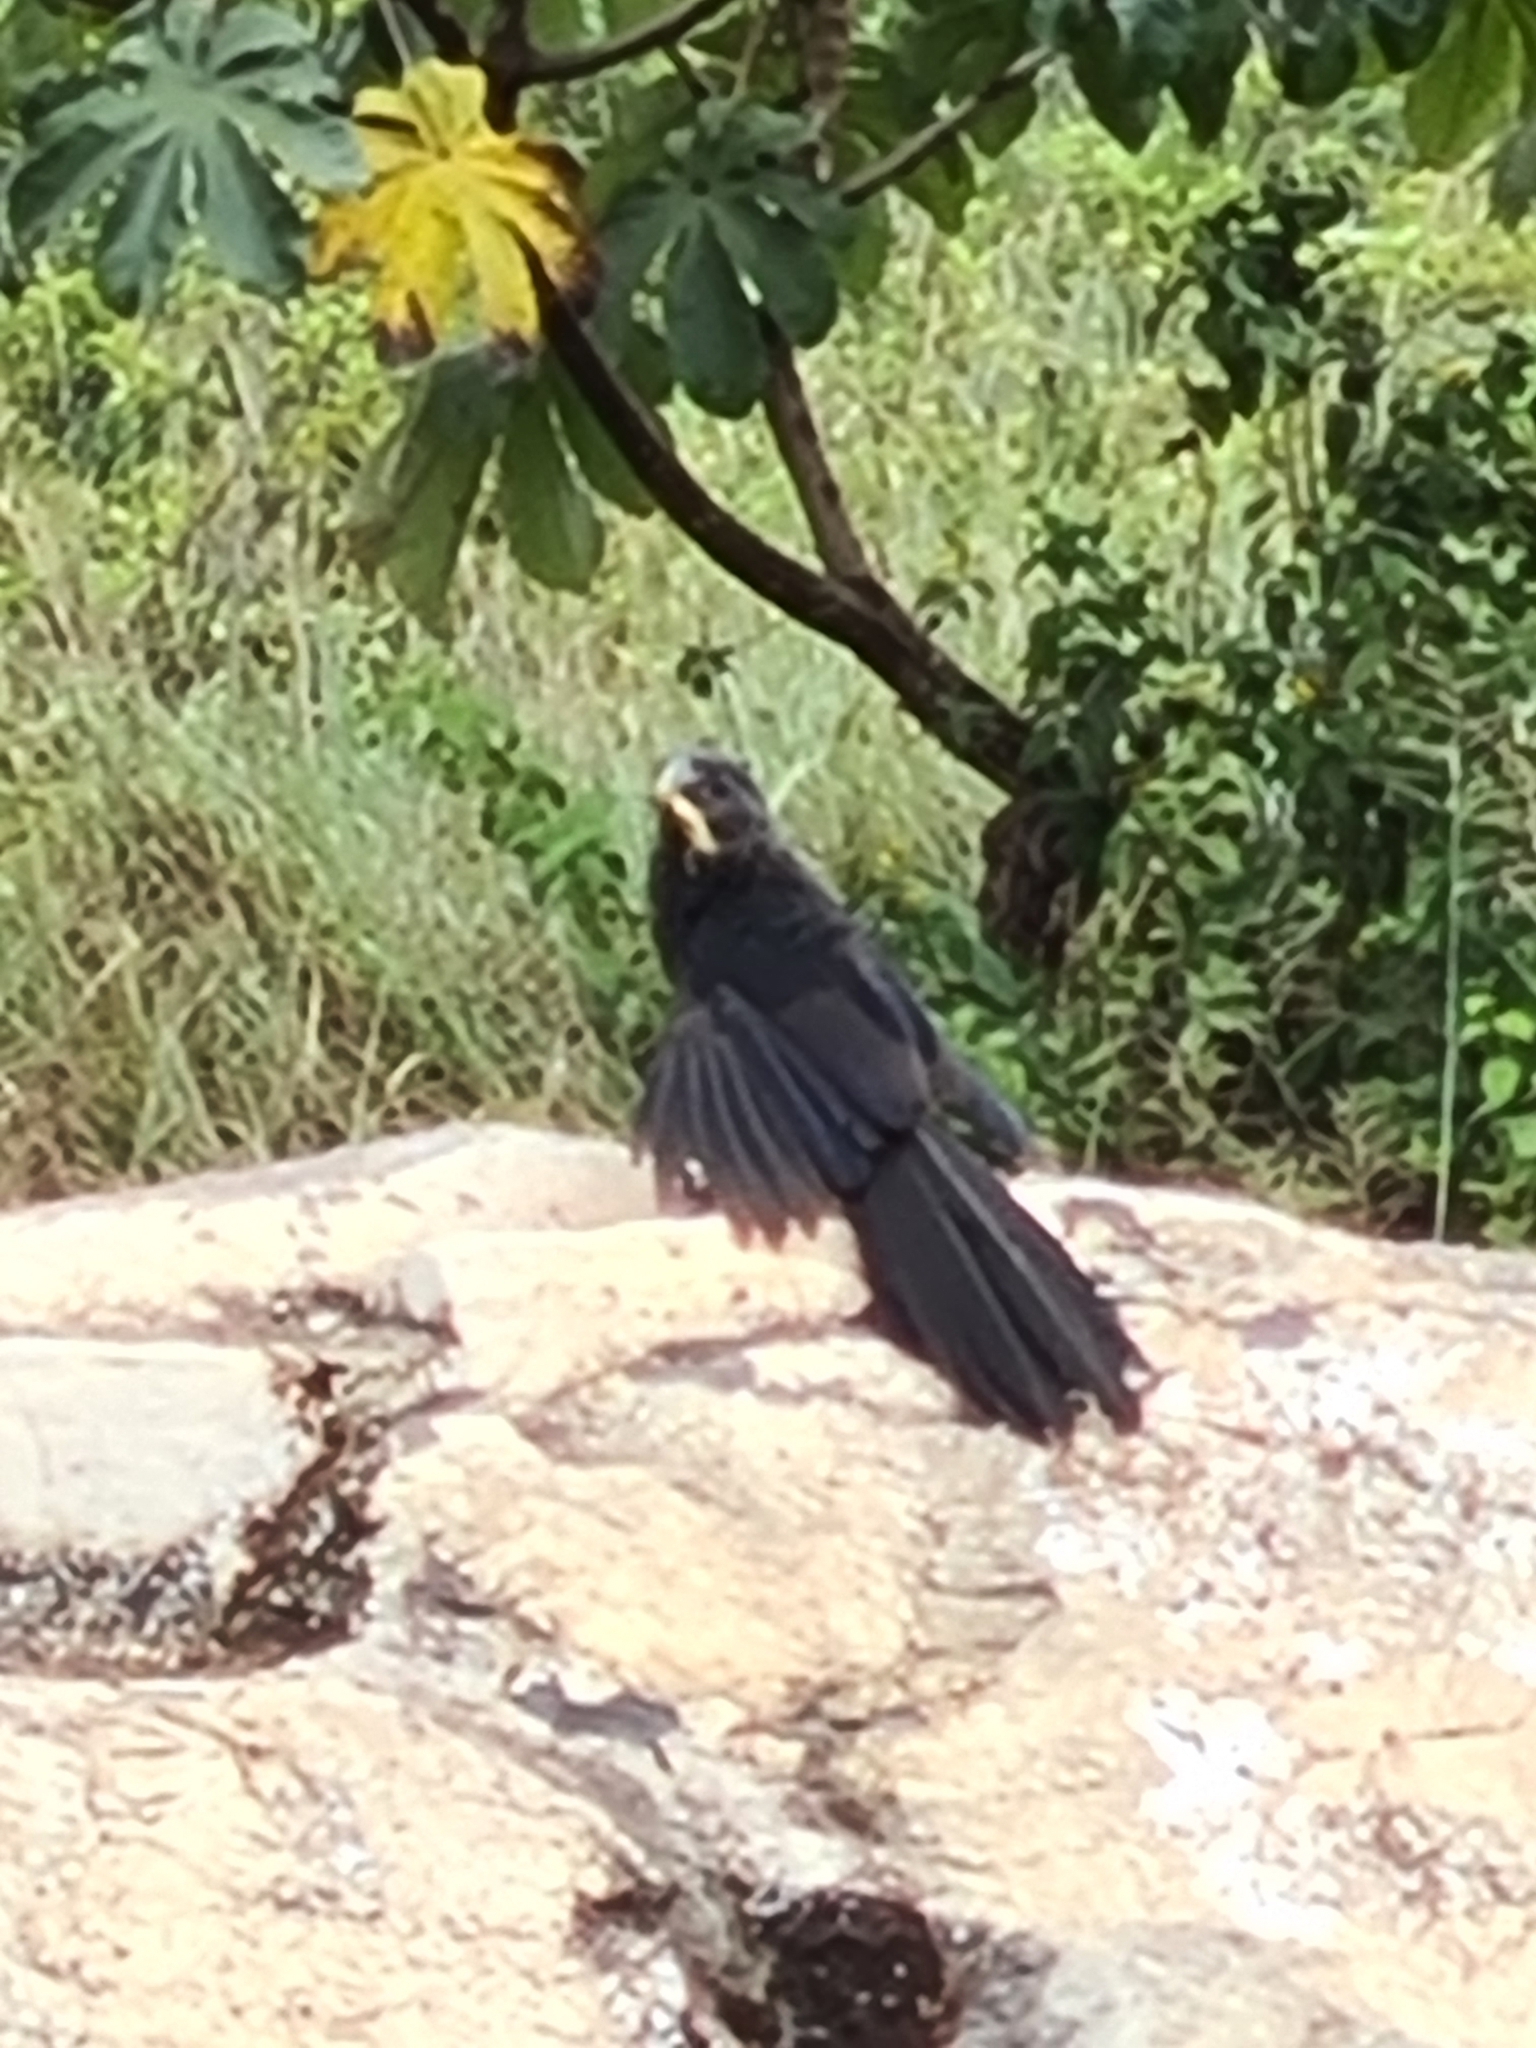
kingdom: Animalia
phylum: Chordata
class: Aves
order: Cuculiformes
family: Cuculidae
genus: Crotophaga
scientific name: Crotophaga ani
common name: Smooth-billed ani
